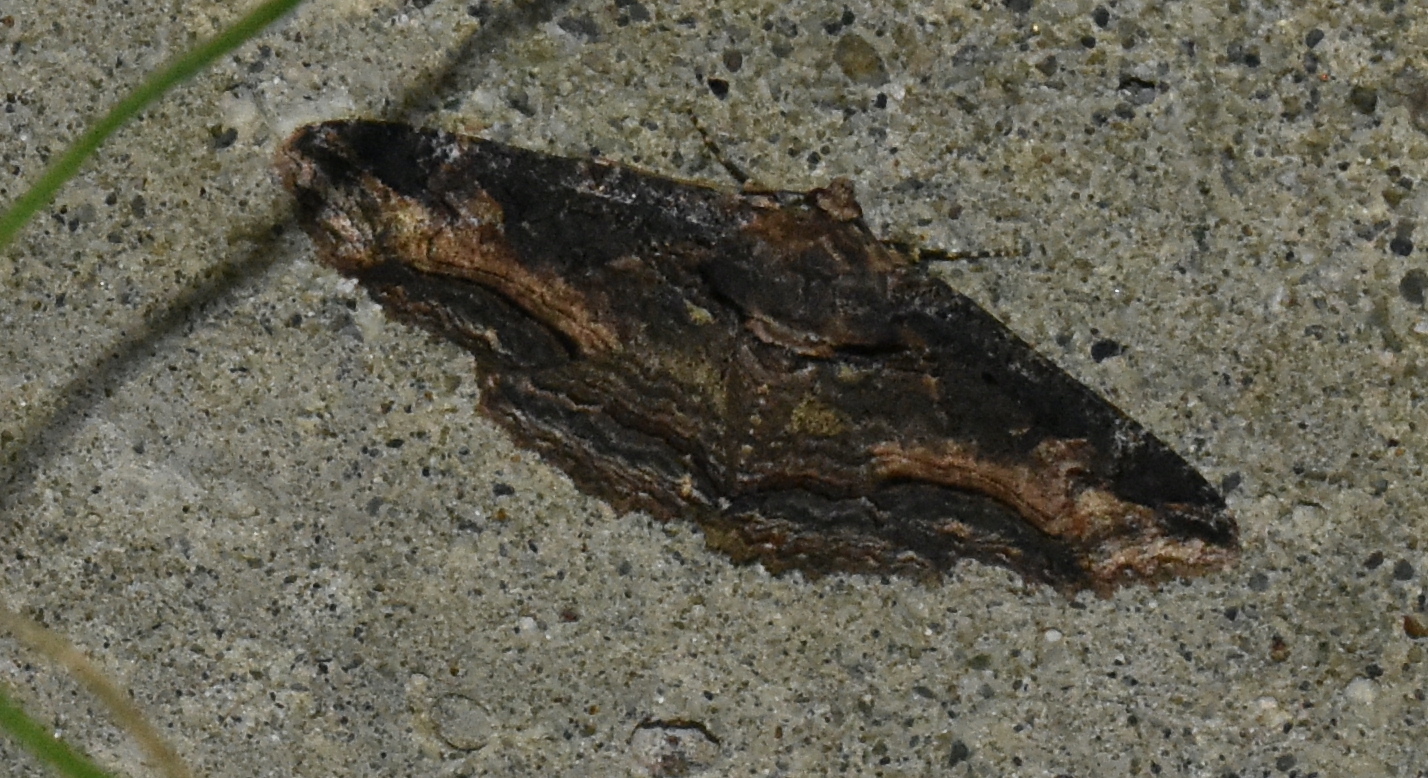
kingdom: Animalia
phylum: Arthropoda
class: Insecta
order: Lepidoptera
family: Erebidae
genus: Zale
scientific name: Zale minerea
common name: Colorful zale moth
